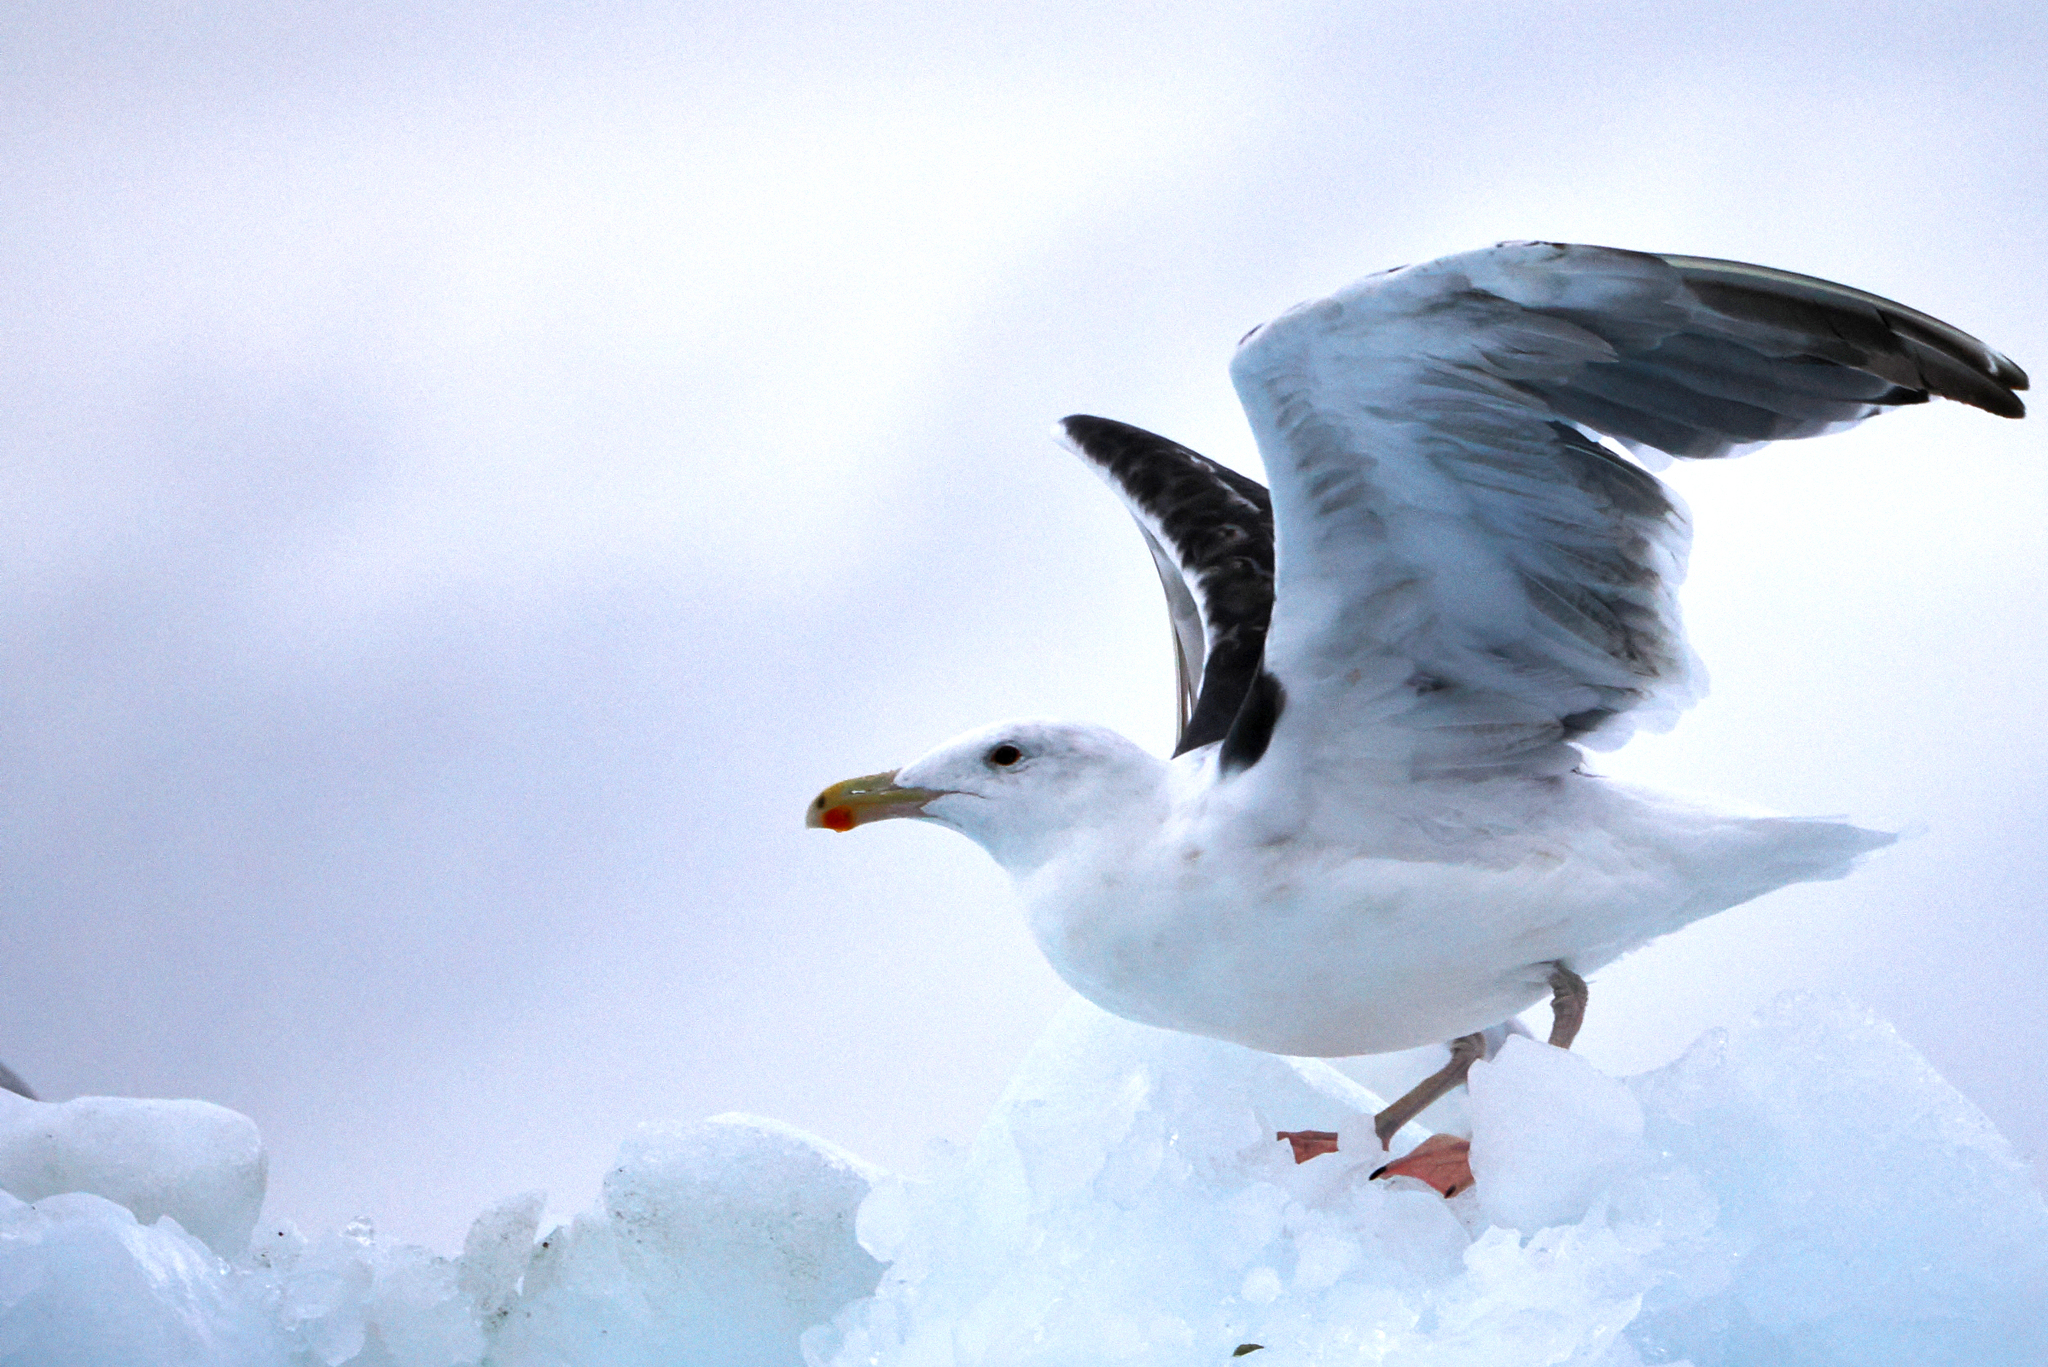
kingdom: Animalia
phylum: Chordata
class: Aves
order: Charadriiformes
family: Laridae
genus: Larus
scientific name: Larus marinus
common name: Great black-backed gull
